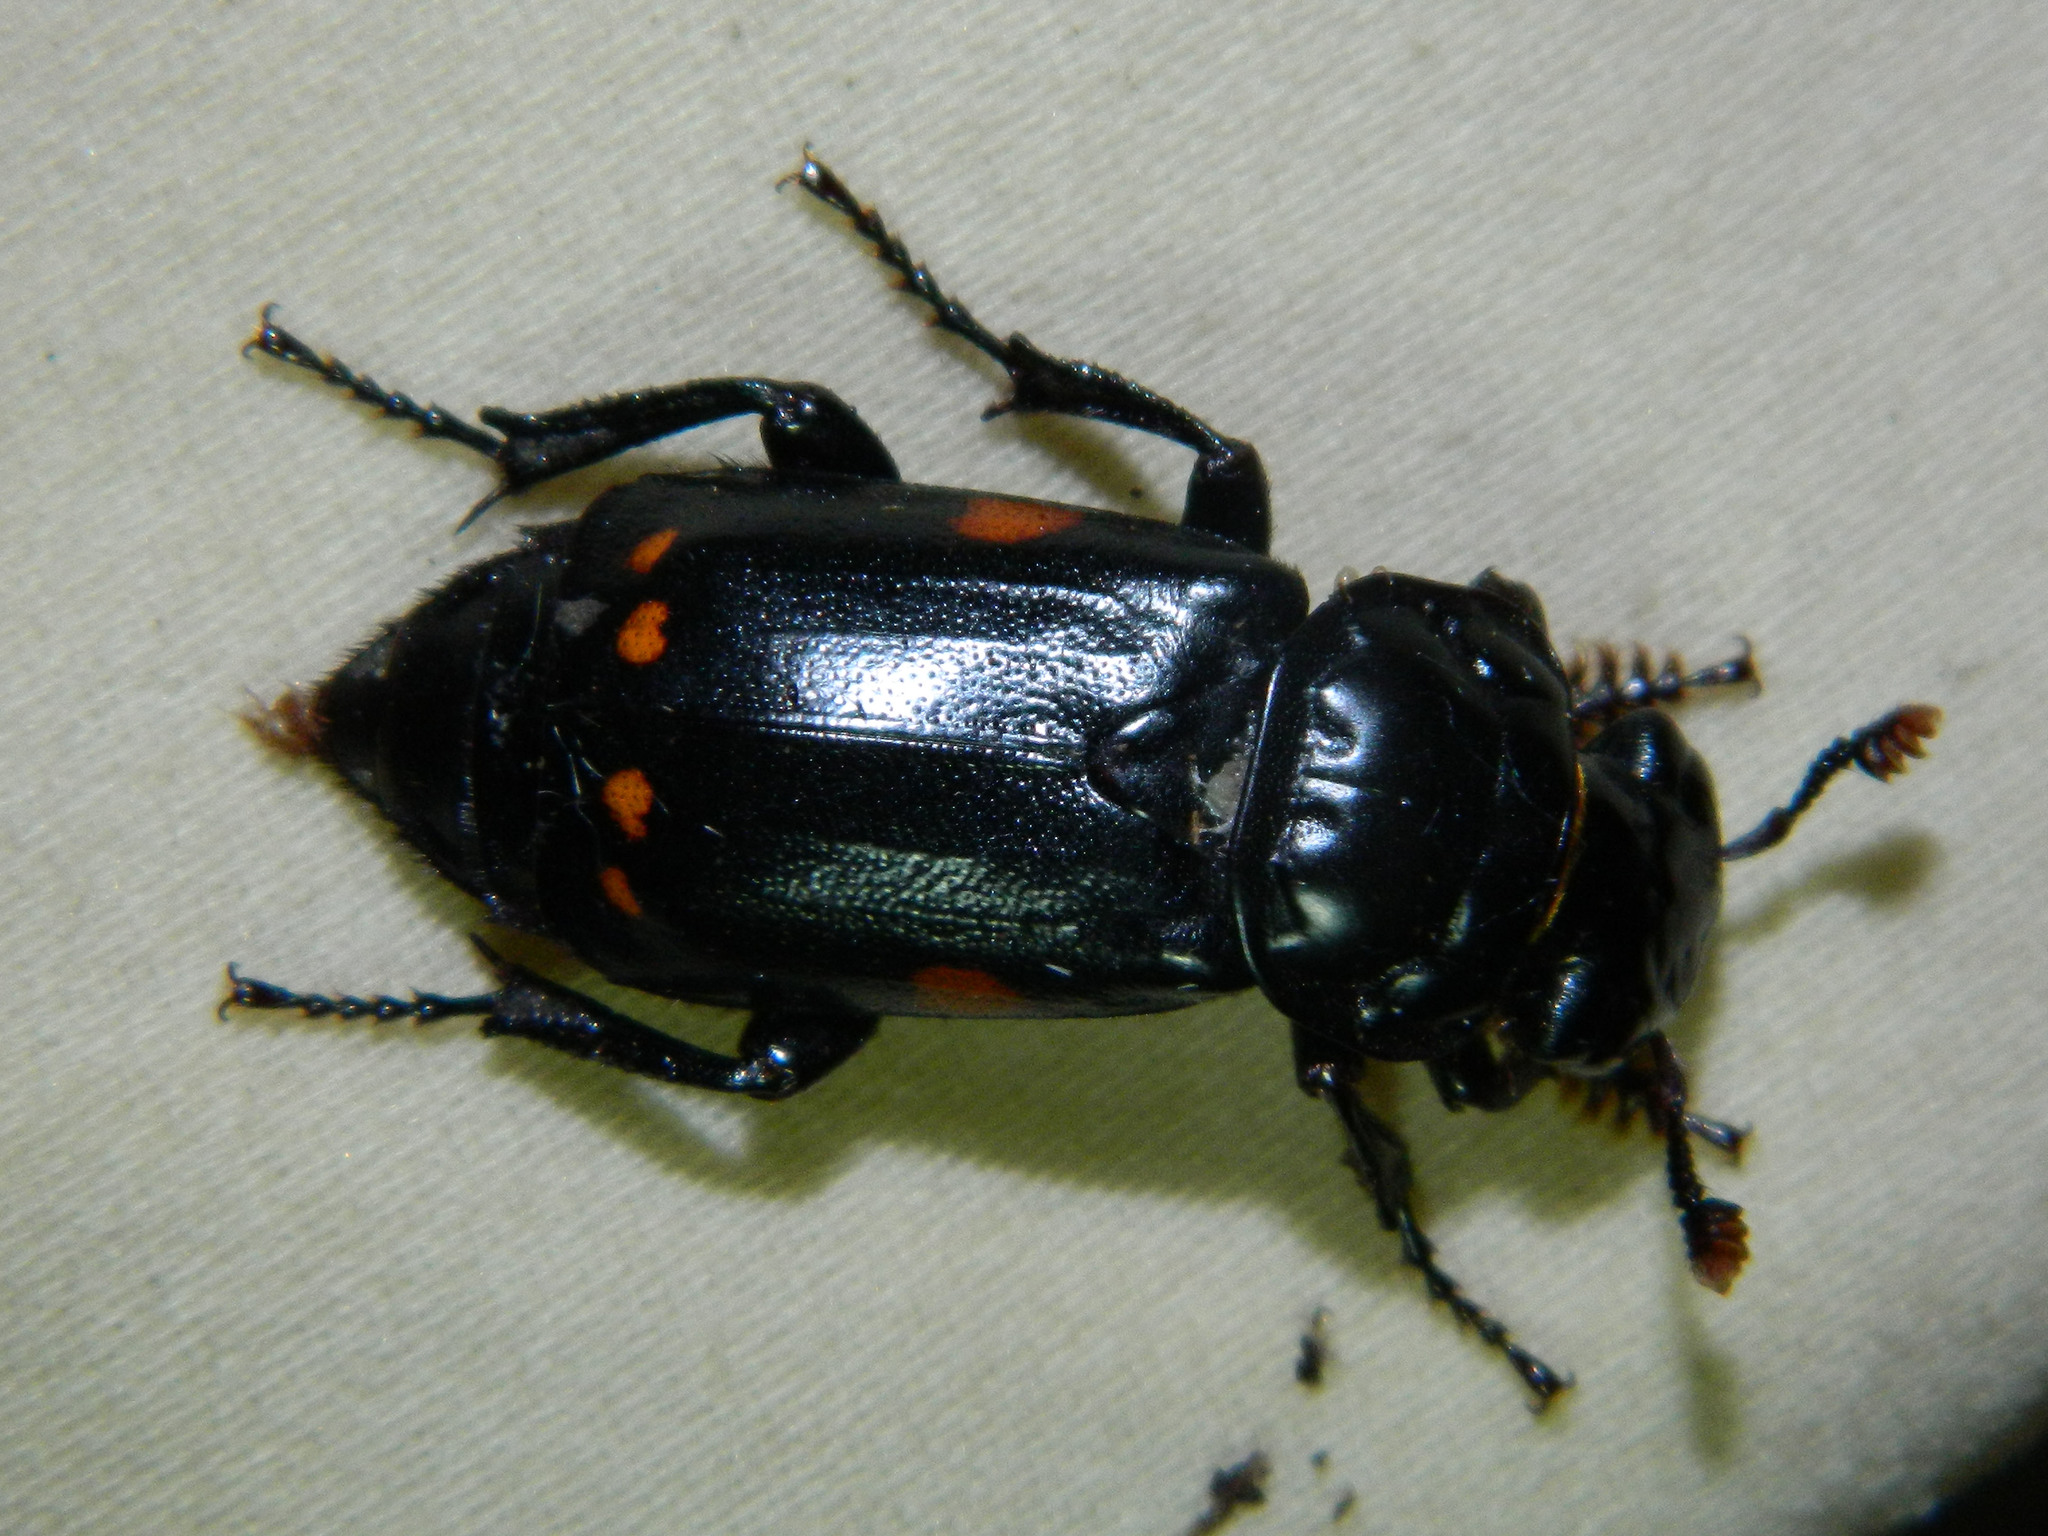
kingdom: Animalia
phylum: Arthropoda
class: Insecta
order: Coleoptera
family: Staphylinidae
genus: Nicrophorus
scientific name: Nicrophorus pustulatus
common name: Pustulated carrion beetle
